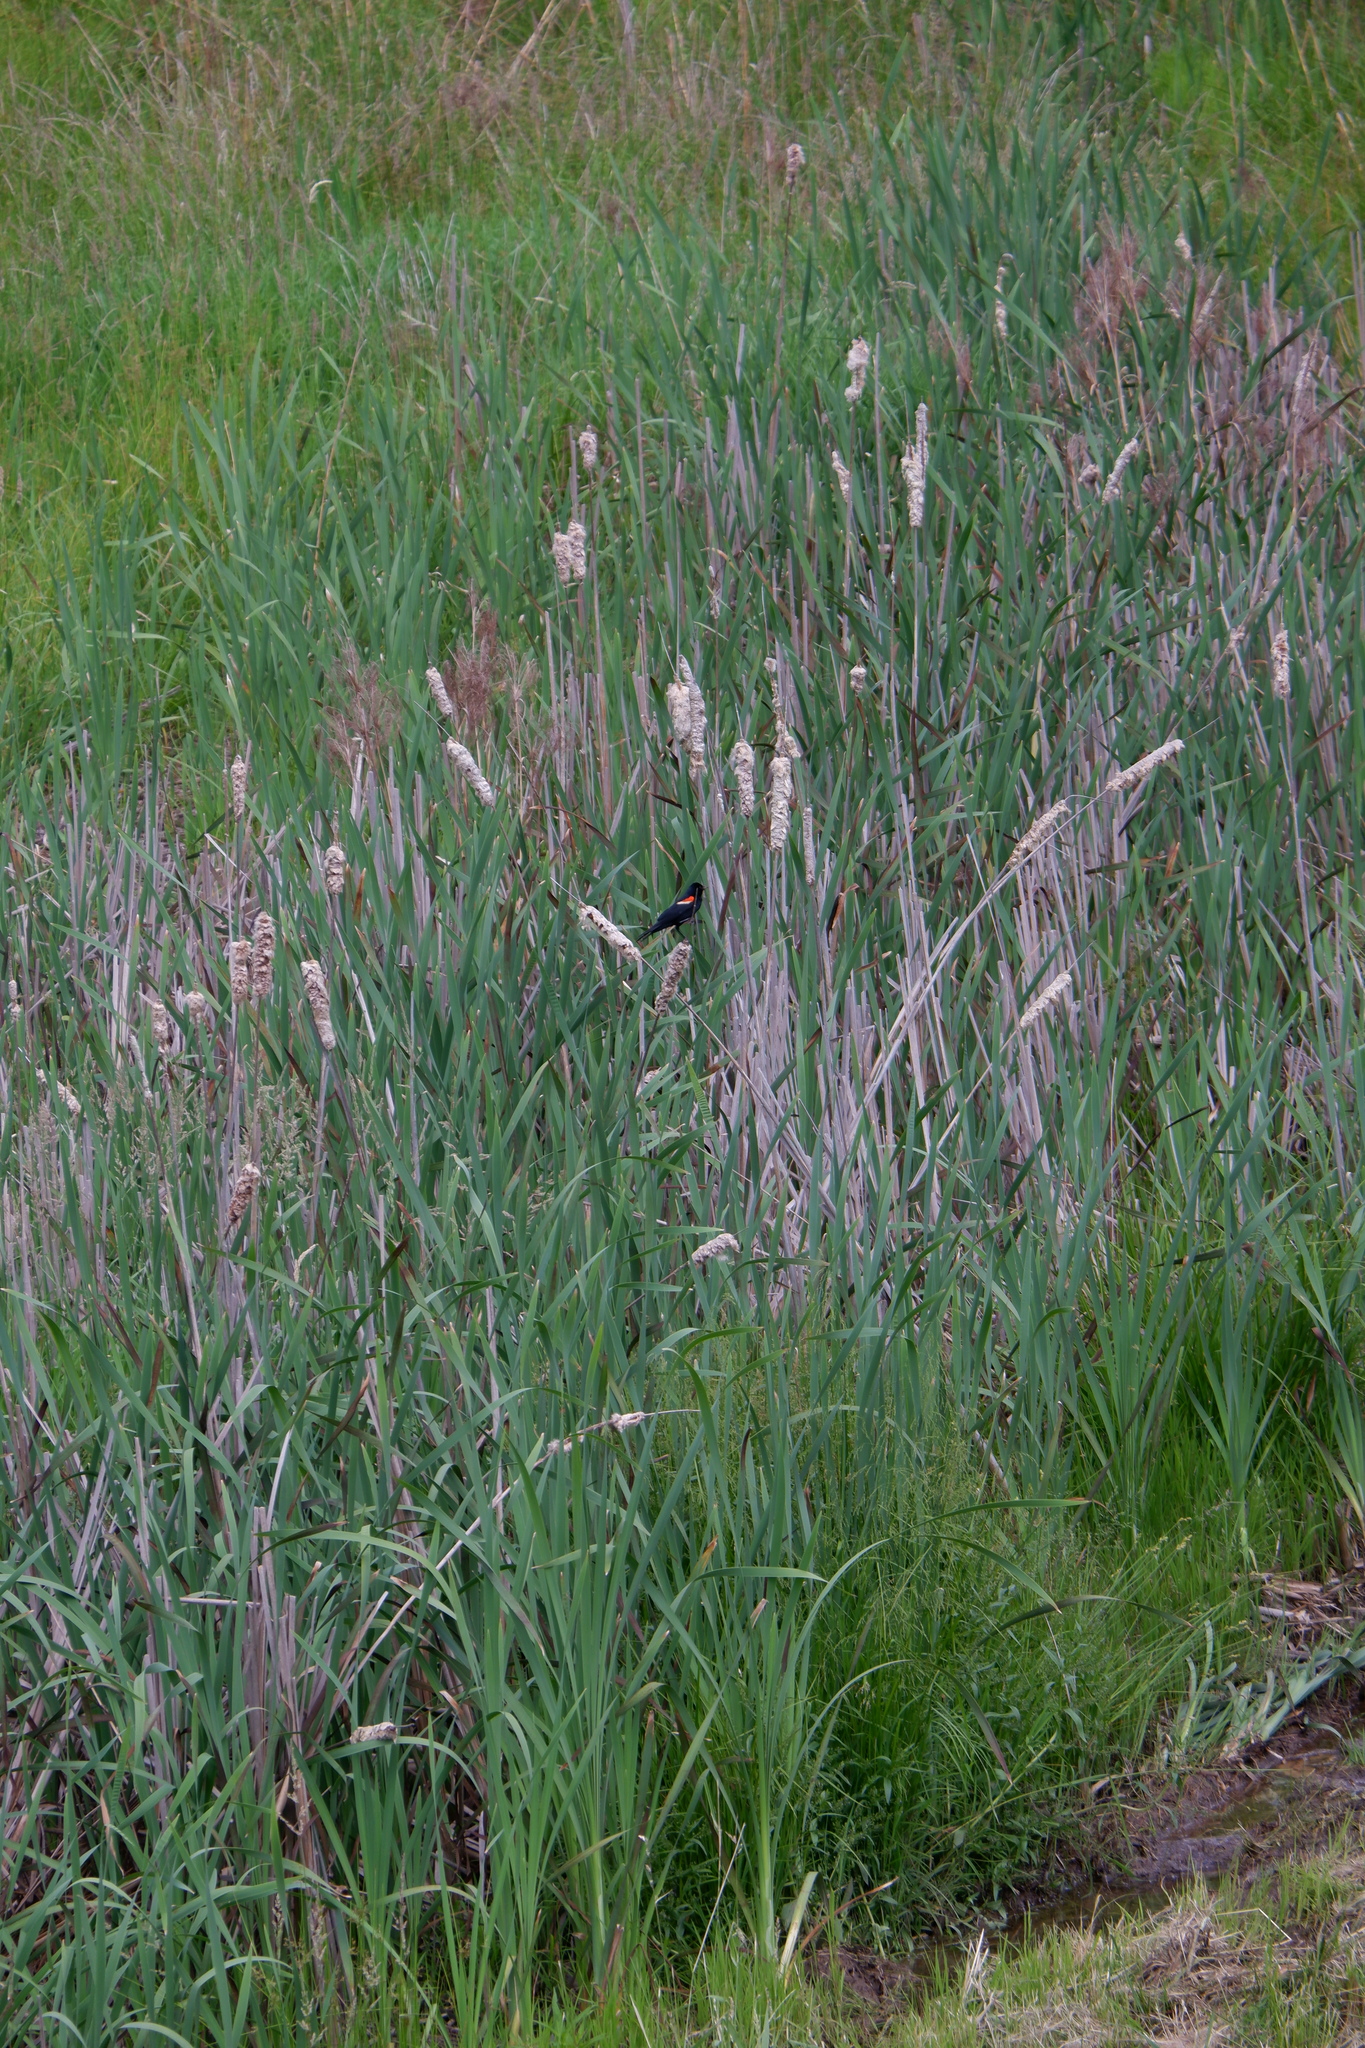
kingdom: Animalia
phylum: Chordata
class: Aves
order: Passeriformes
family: Icteridae
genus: Agelaius
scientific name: Agelaius phoeniceus
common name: Red-winged blackbird
